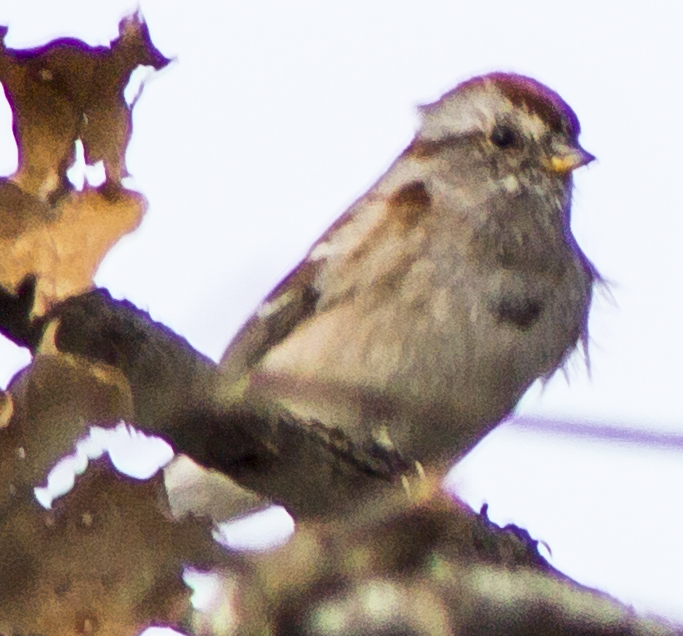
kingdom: Animalia
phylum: Chordata
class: Aves
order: Passeriformes
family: Passerellidae
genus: Spizelloides
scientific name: Spizelloides arborea
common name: American tree sparrow
